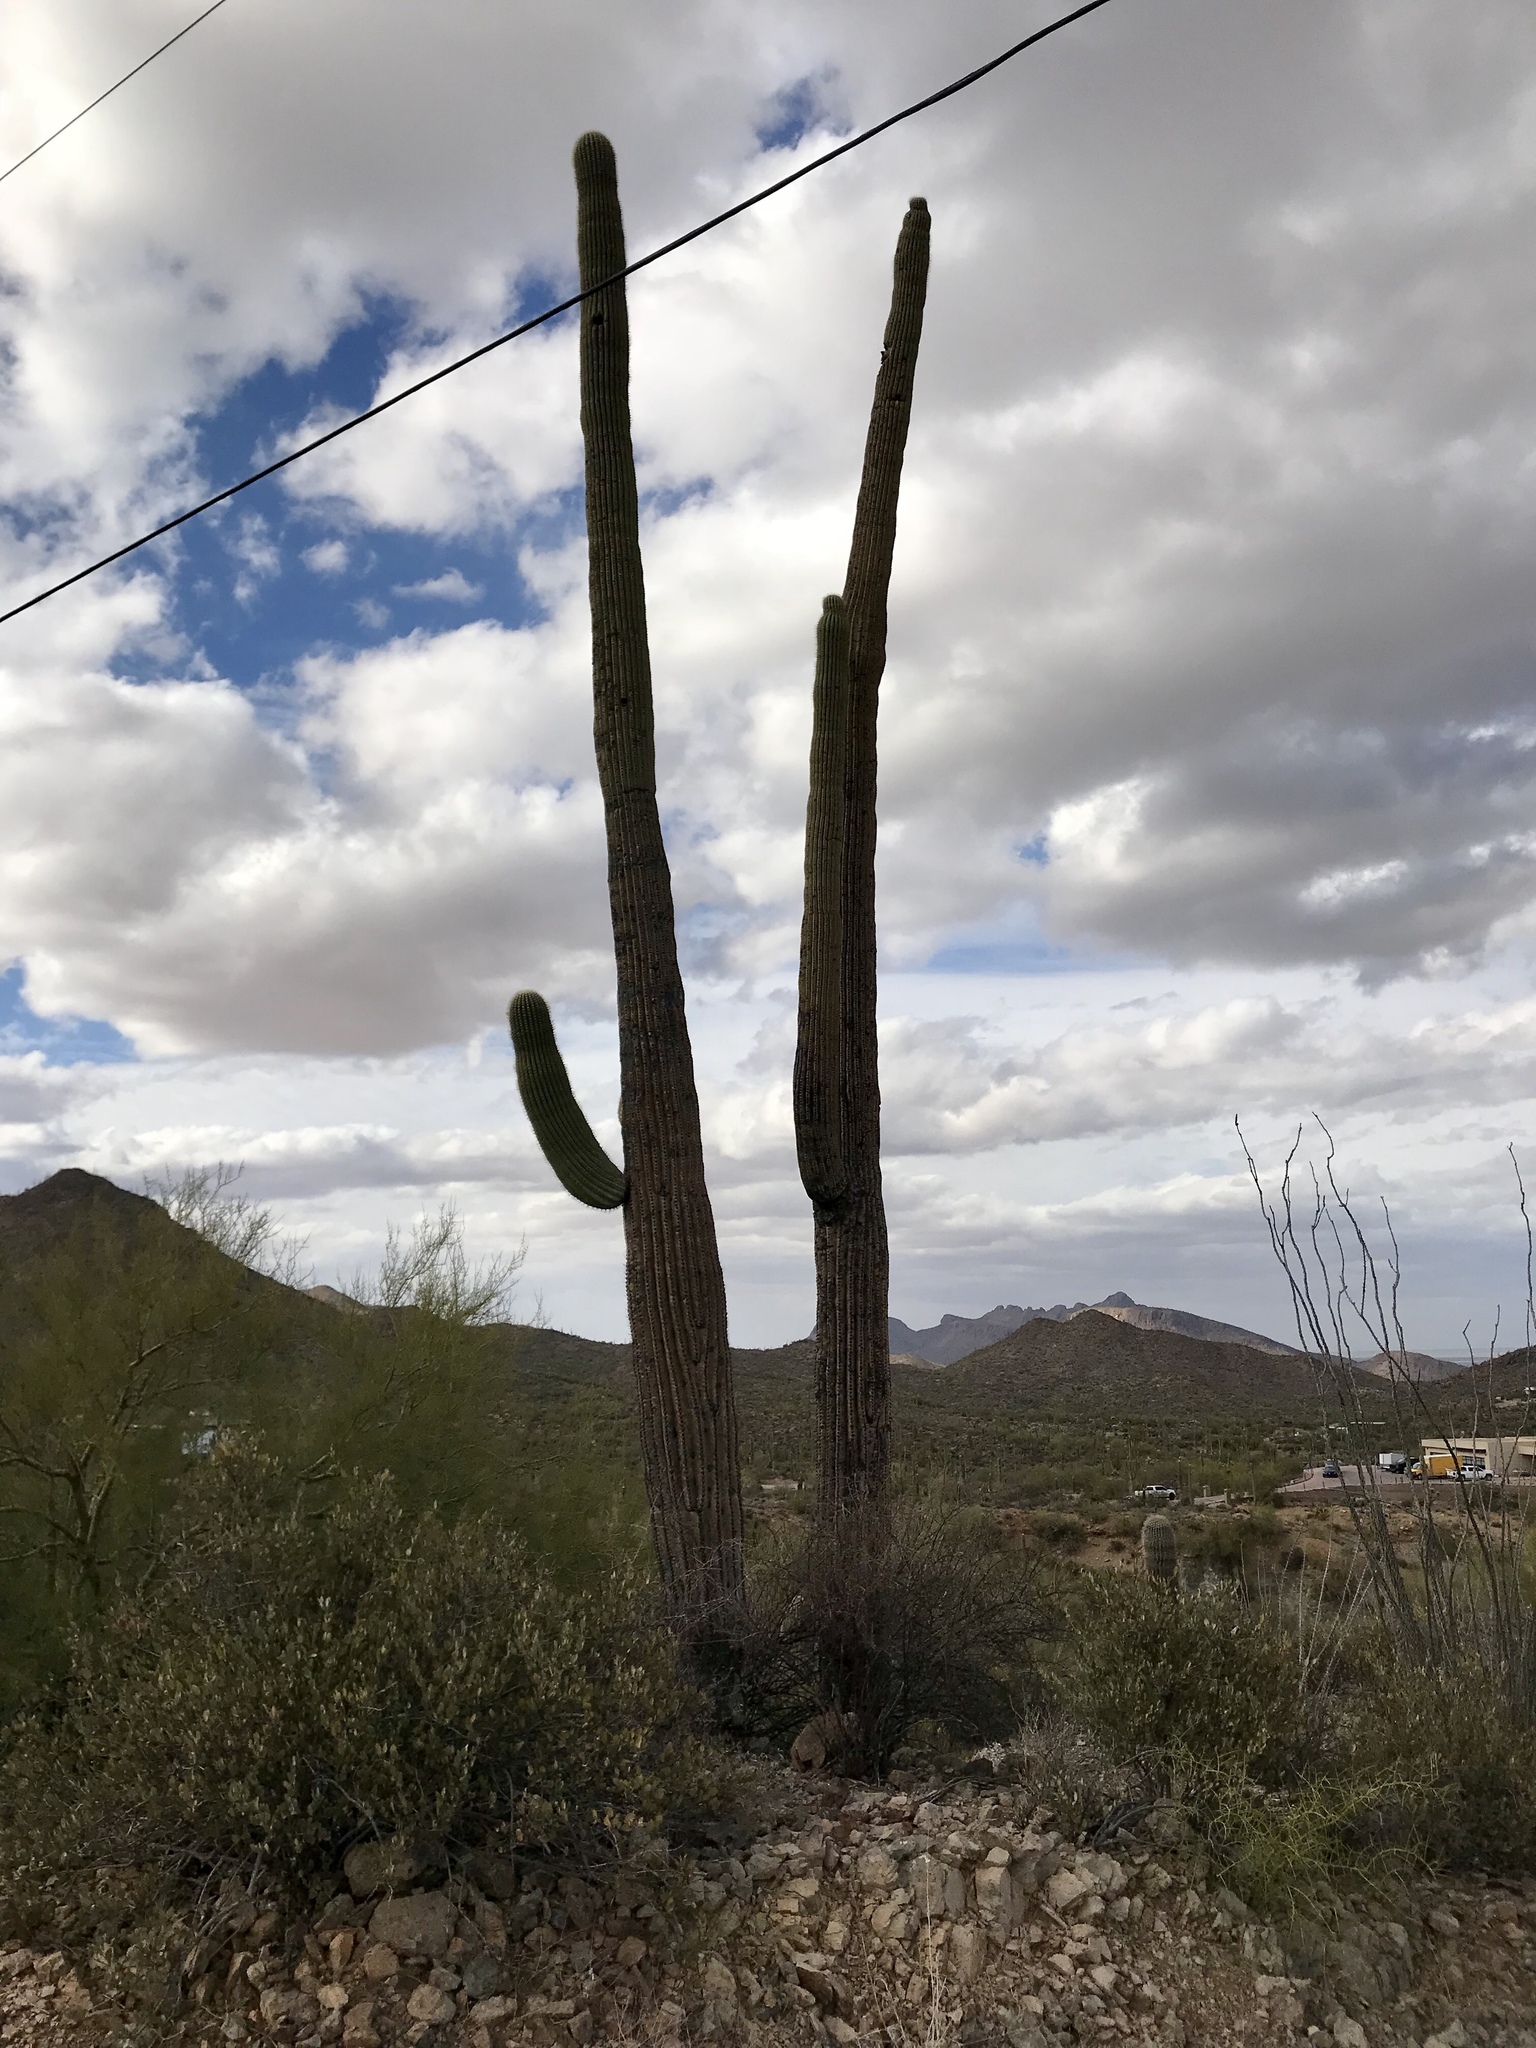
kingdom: Plantae
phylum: Tracheophyta
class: Magnoliopsida
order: Caryophyllales
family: Cactaceae
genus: Carnegiea
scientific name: Carnegiea gigantea
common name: Saguaro
